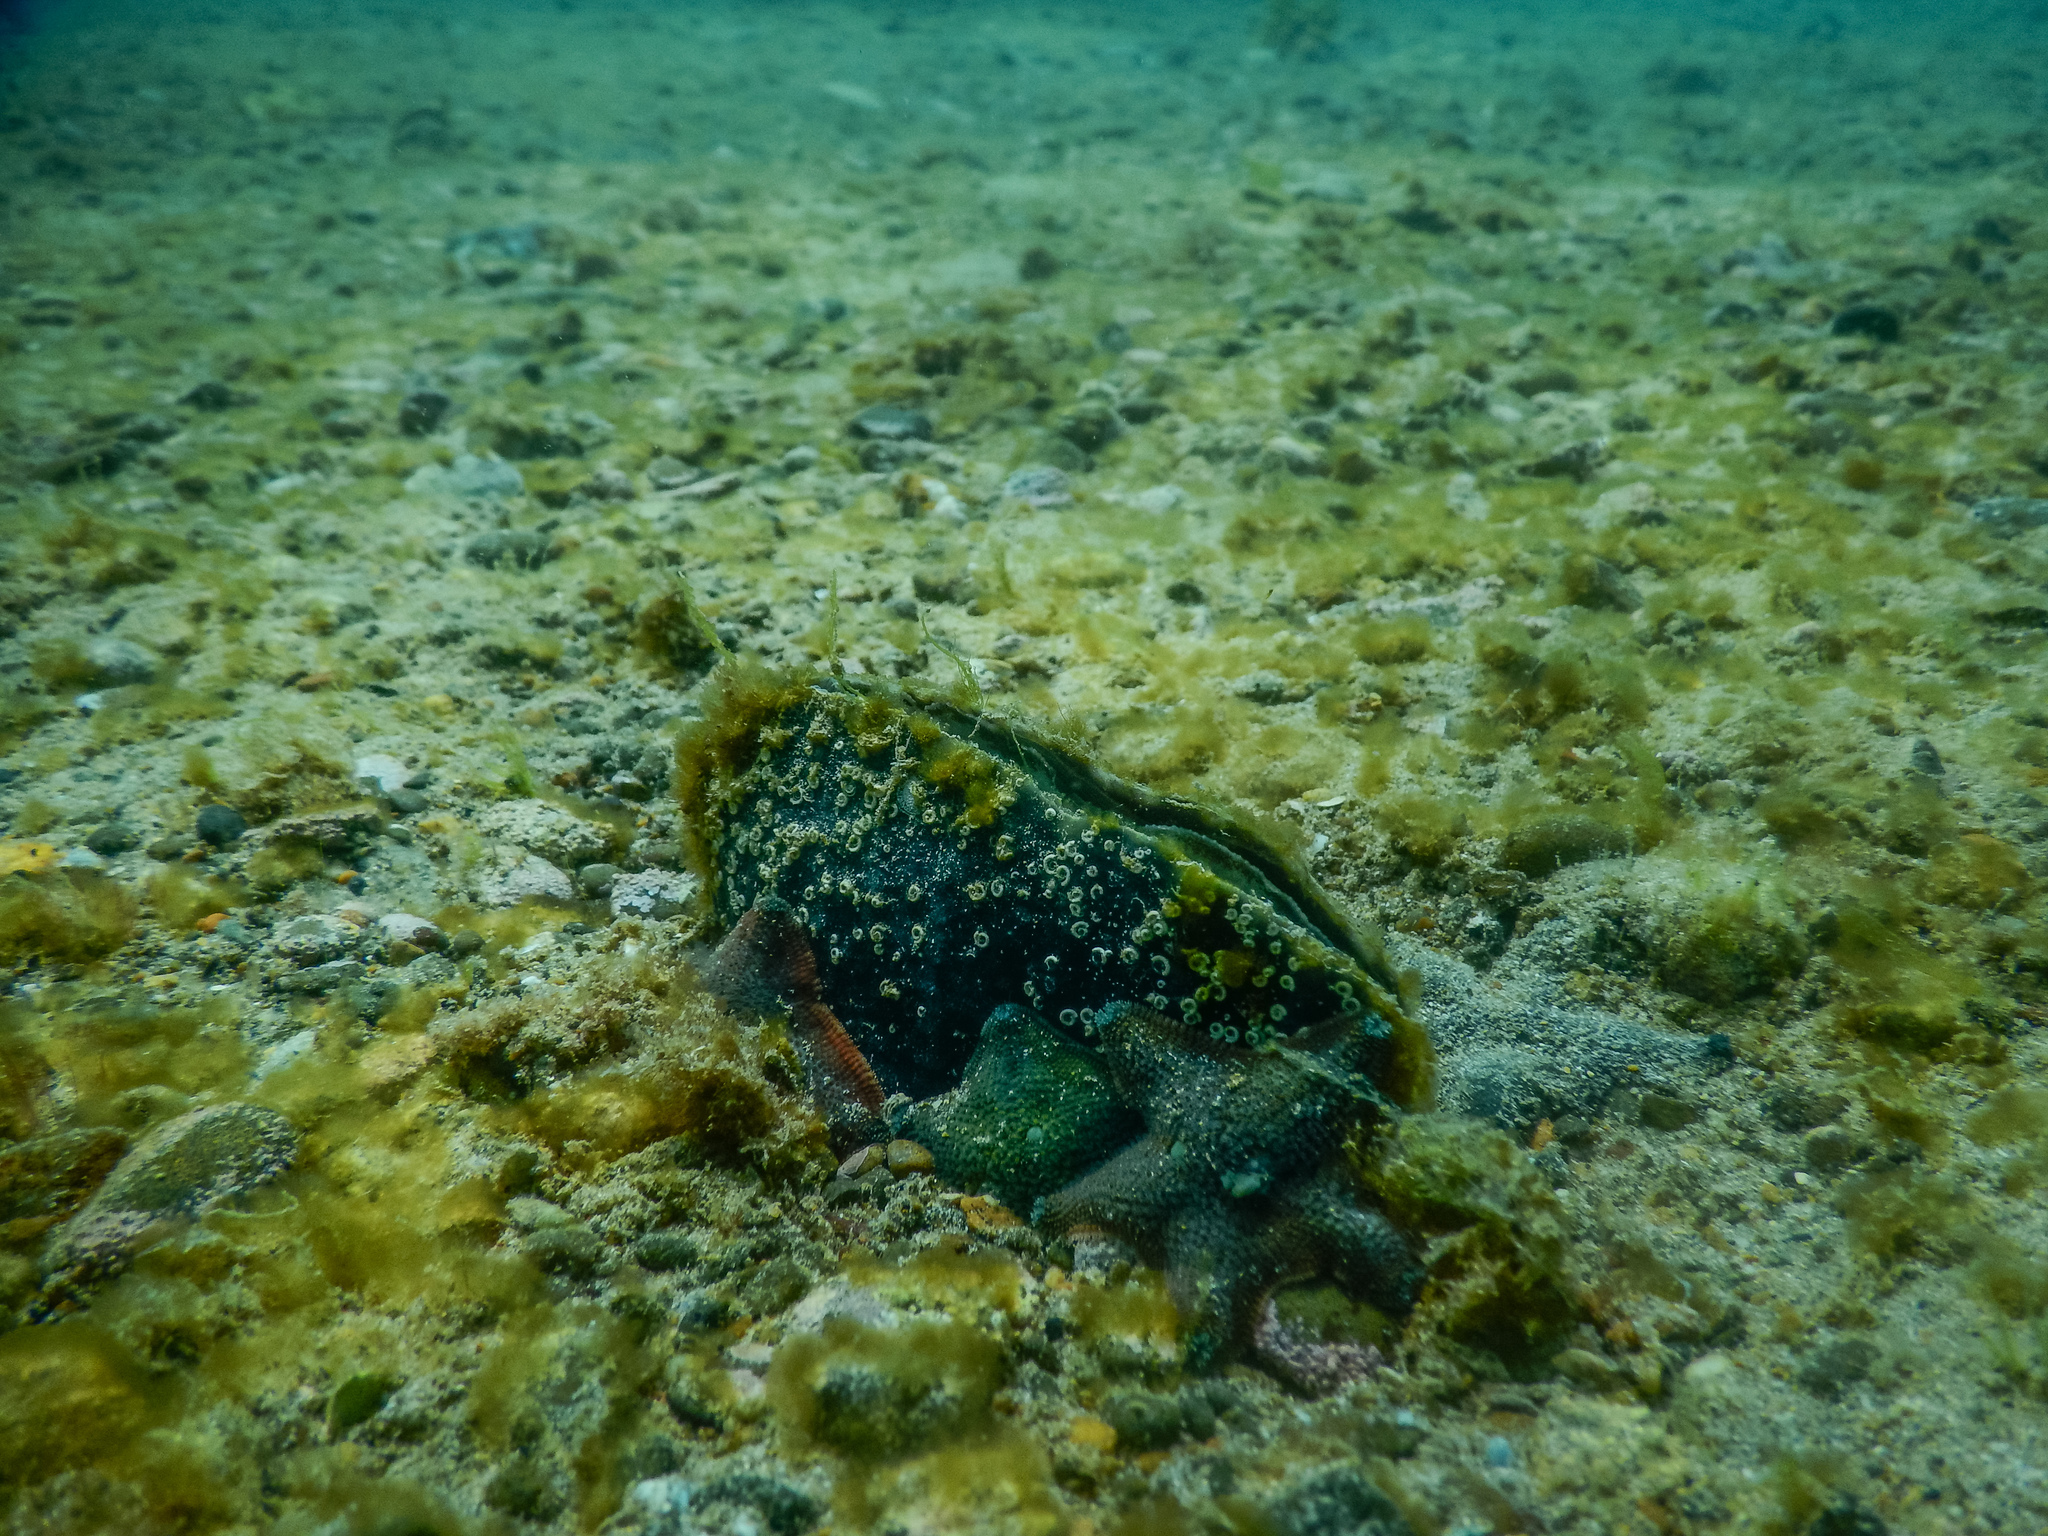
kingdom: Animalia
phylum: Mollusca
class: Bivalvia
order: Ostreida
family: Pinnidae
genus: Atrina
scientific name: Atrina zelandica
